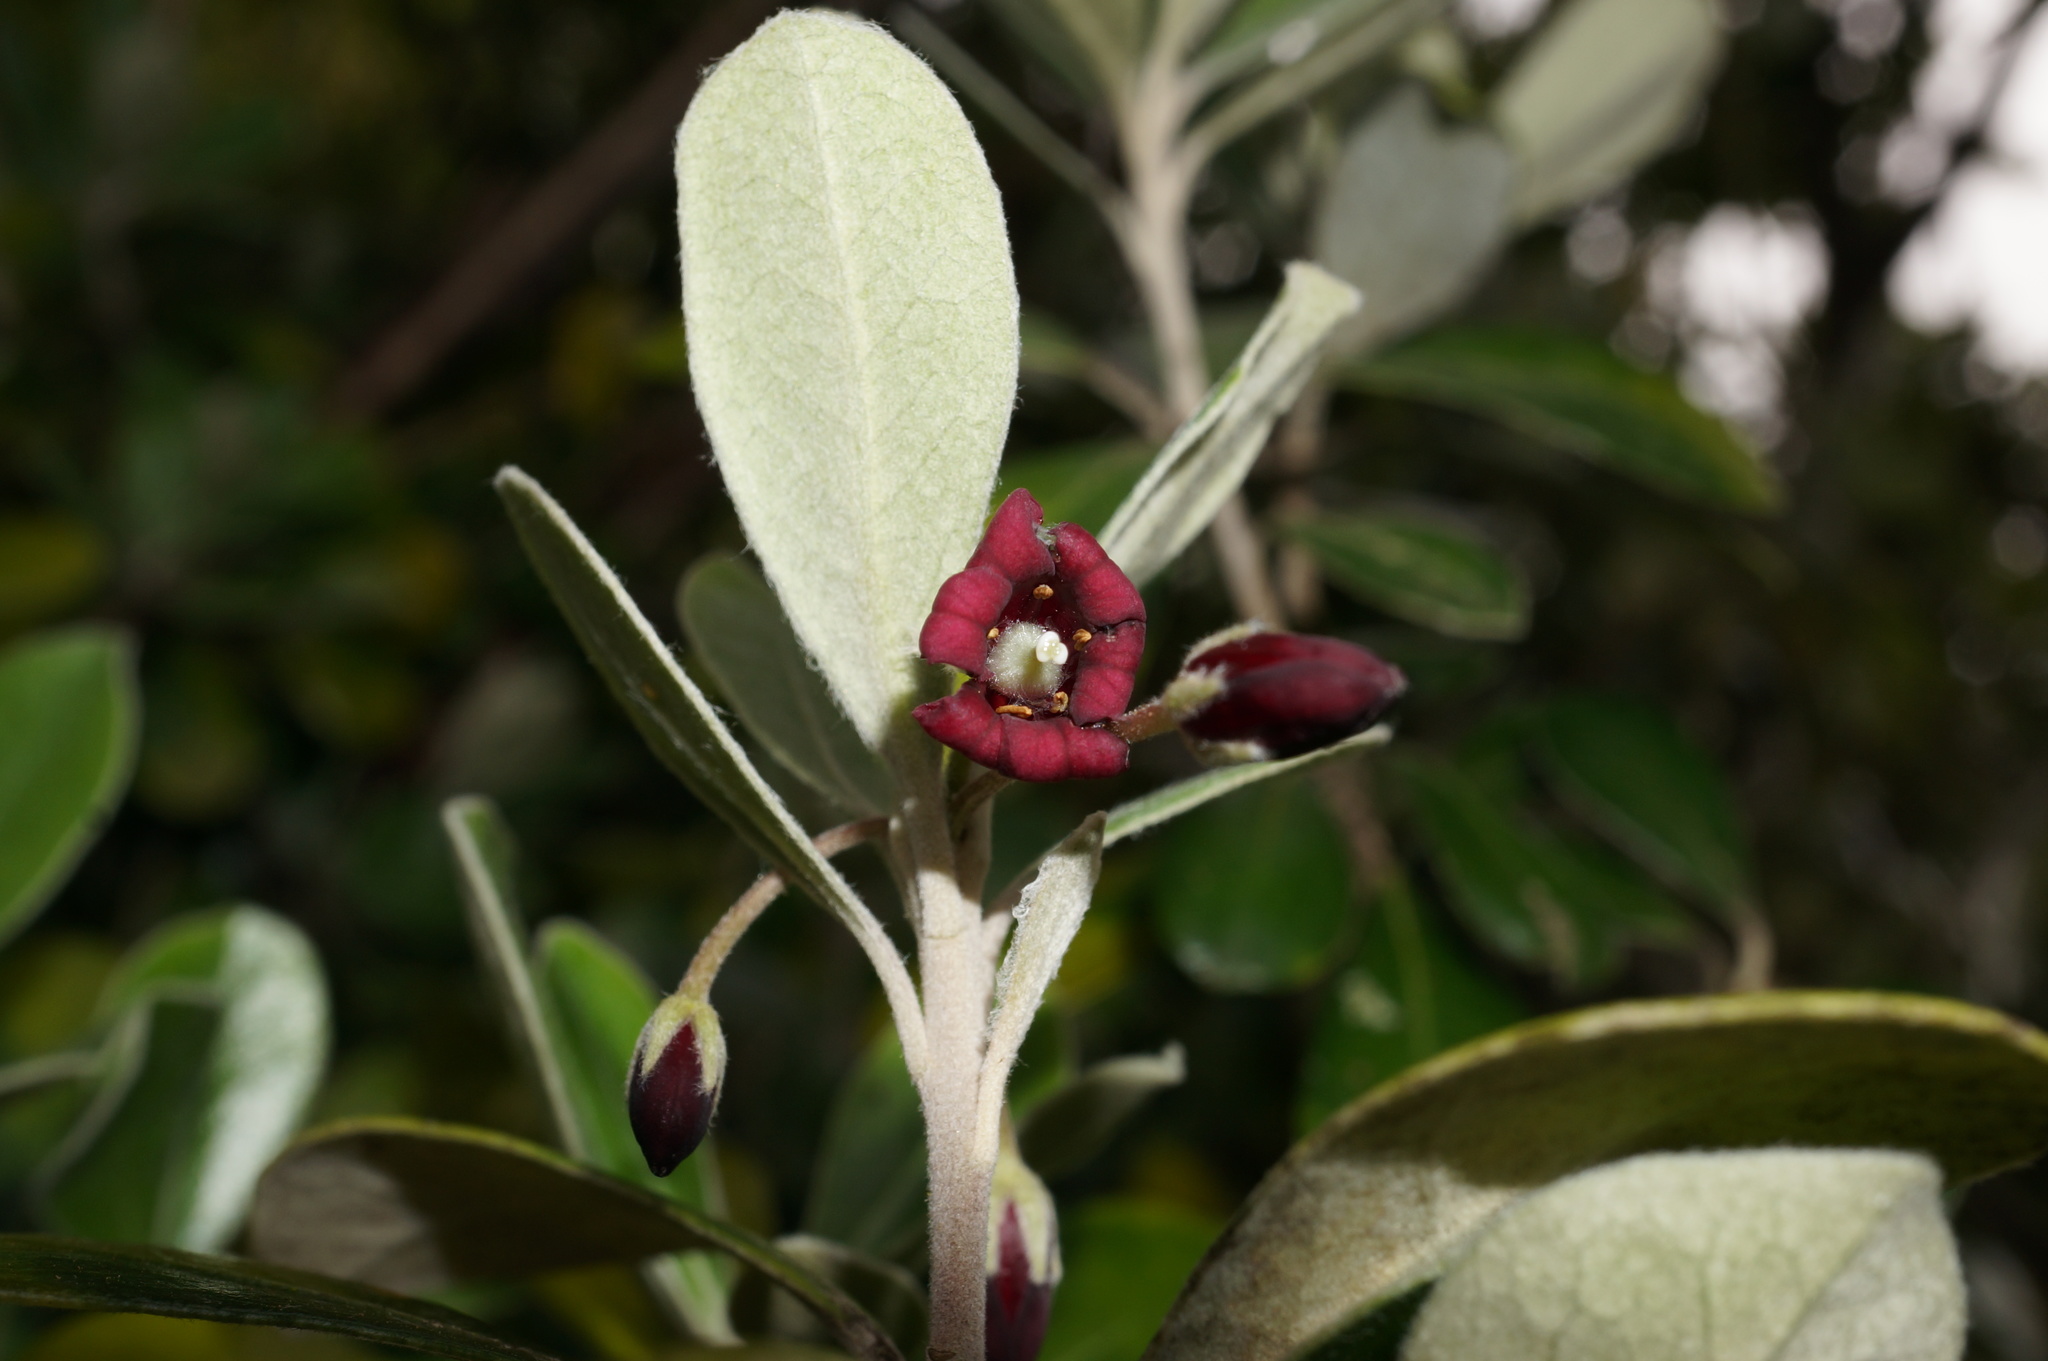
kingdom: Plantae
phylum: Tracheophyta
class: Magnoliopsida
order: Apiales
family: Pittosporaceae
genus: Pittosporum
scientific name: Pittosporum crassifolium
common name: Karo
